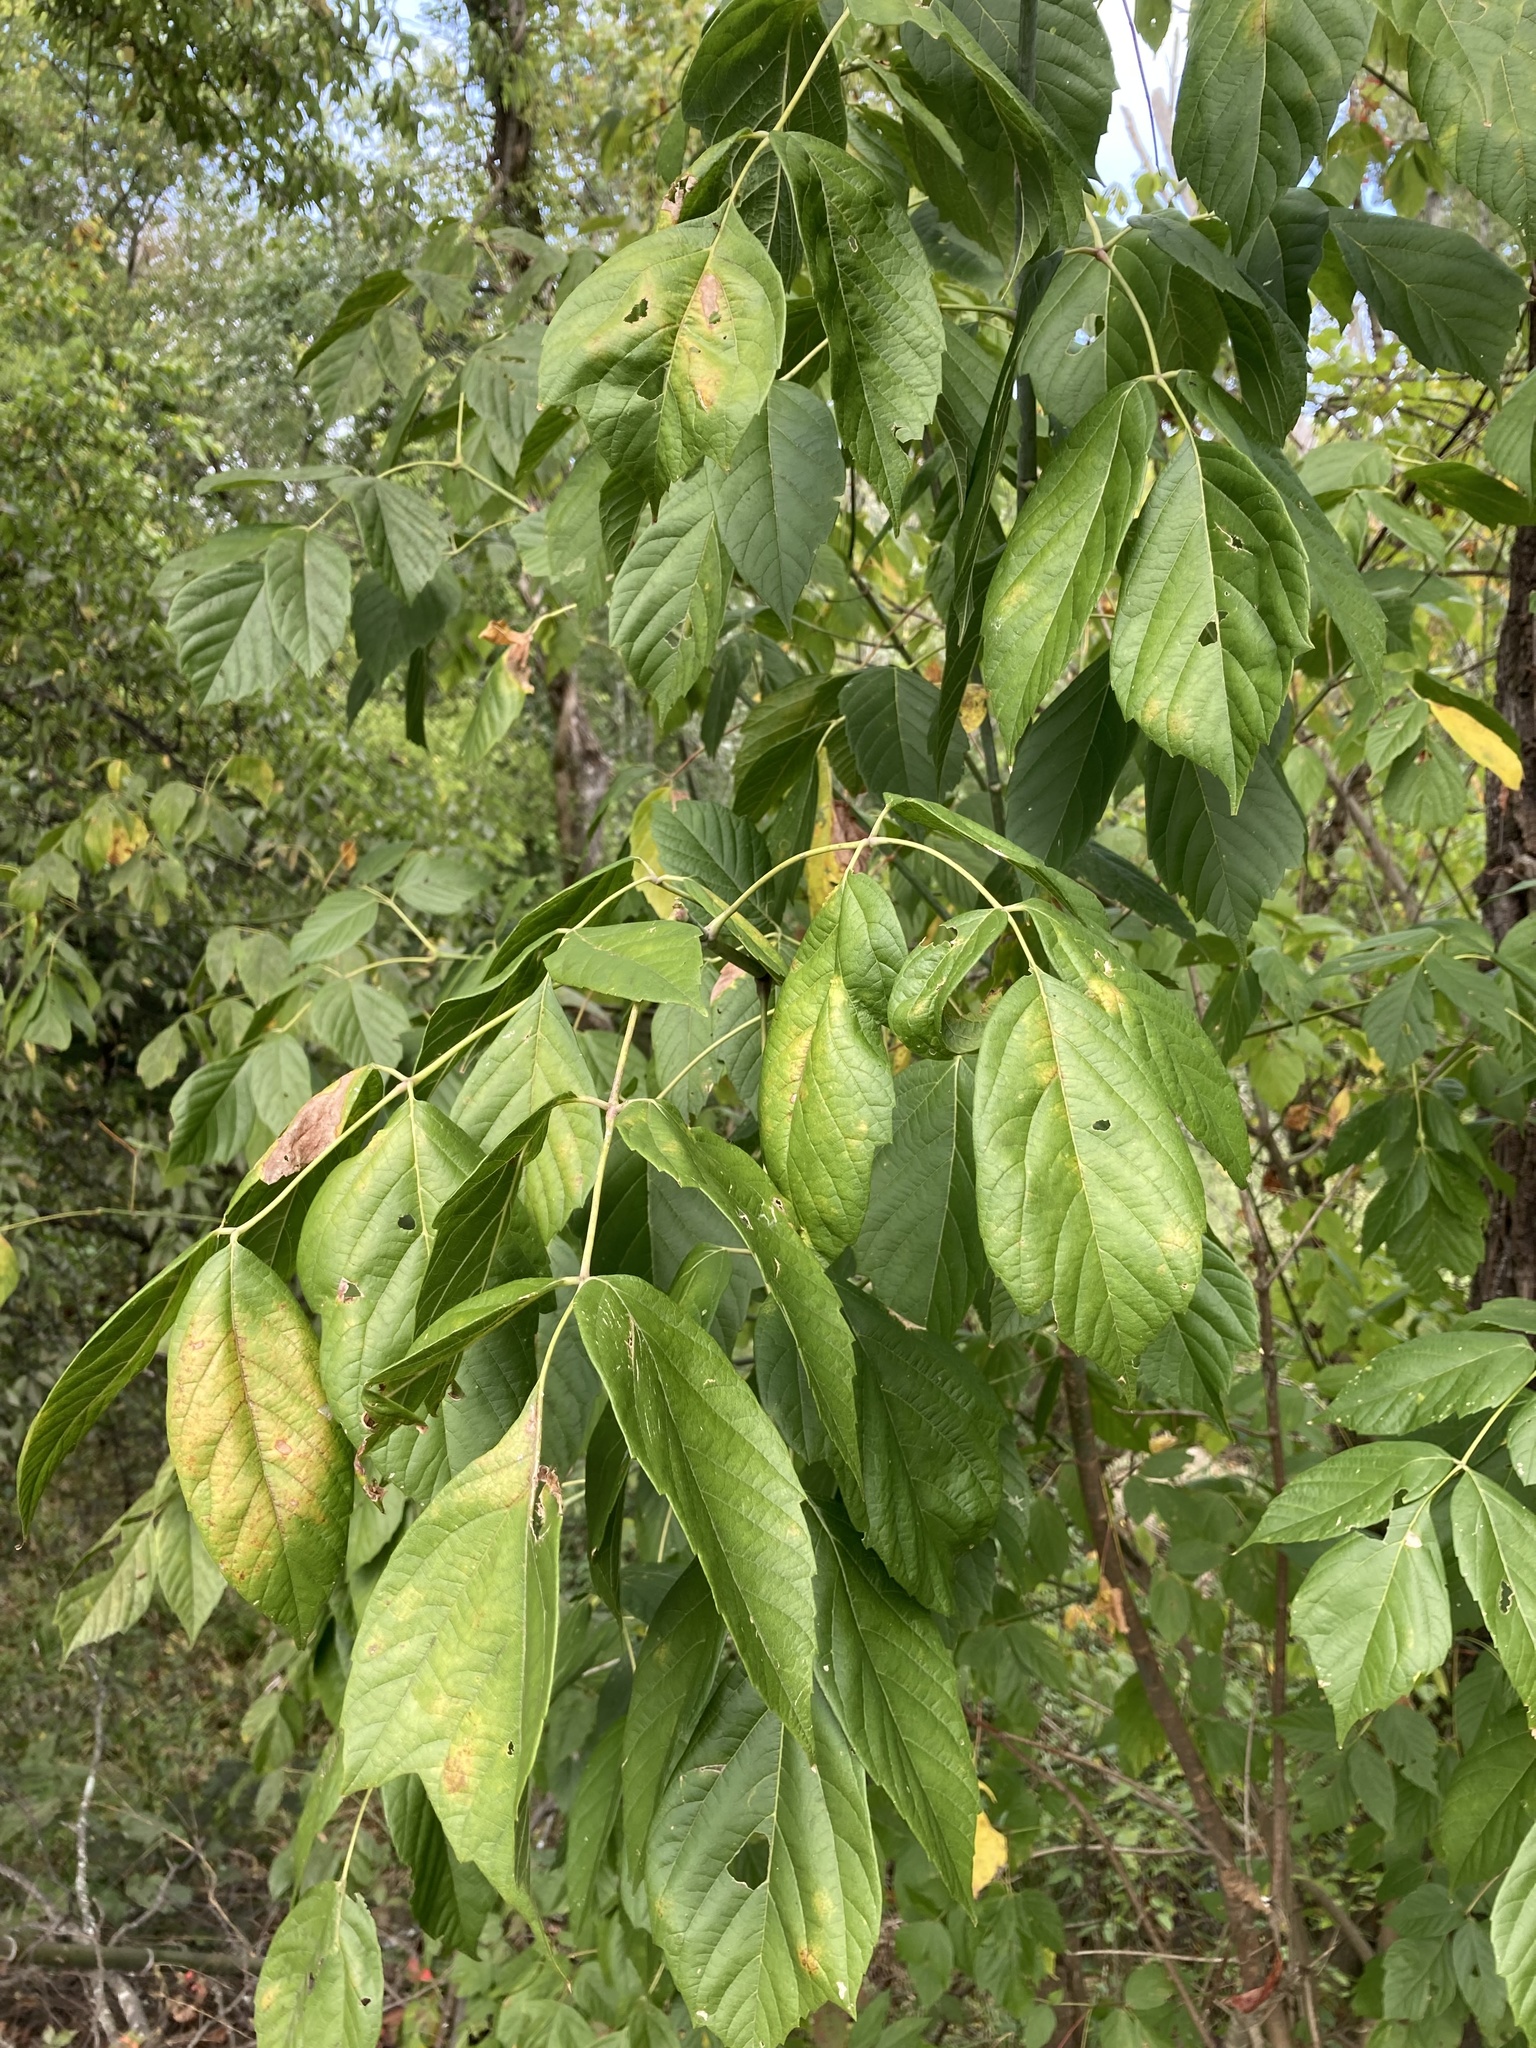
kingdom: Plantae
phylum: Tracheophyta
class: Magnoliopsida
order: Sapindales
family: Sapindaceae
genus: Acer
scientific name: Acer negundo
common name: Ashleaf maple
